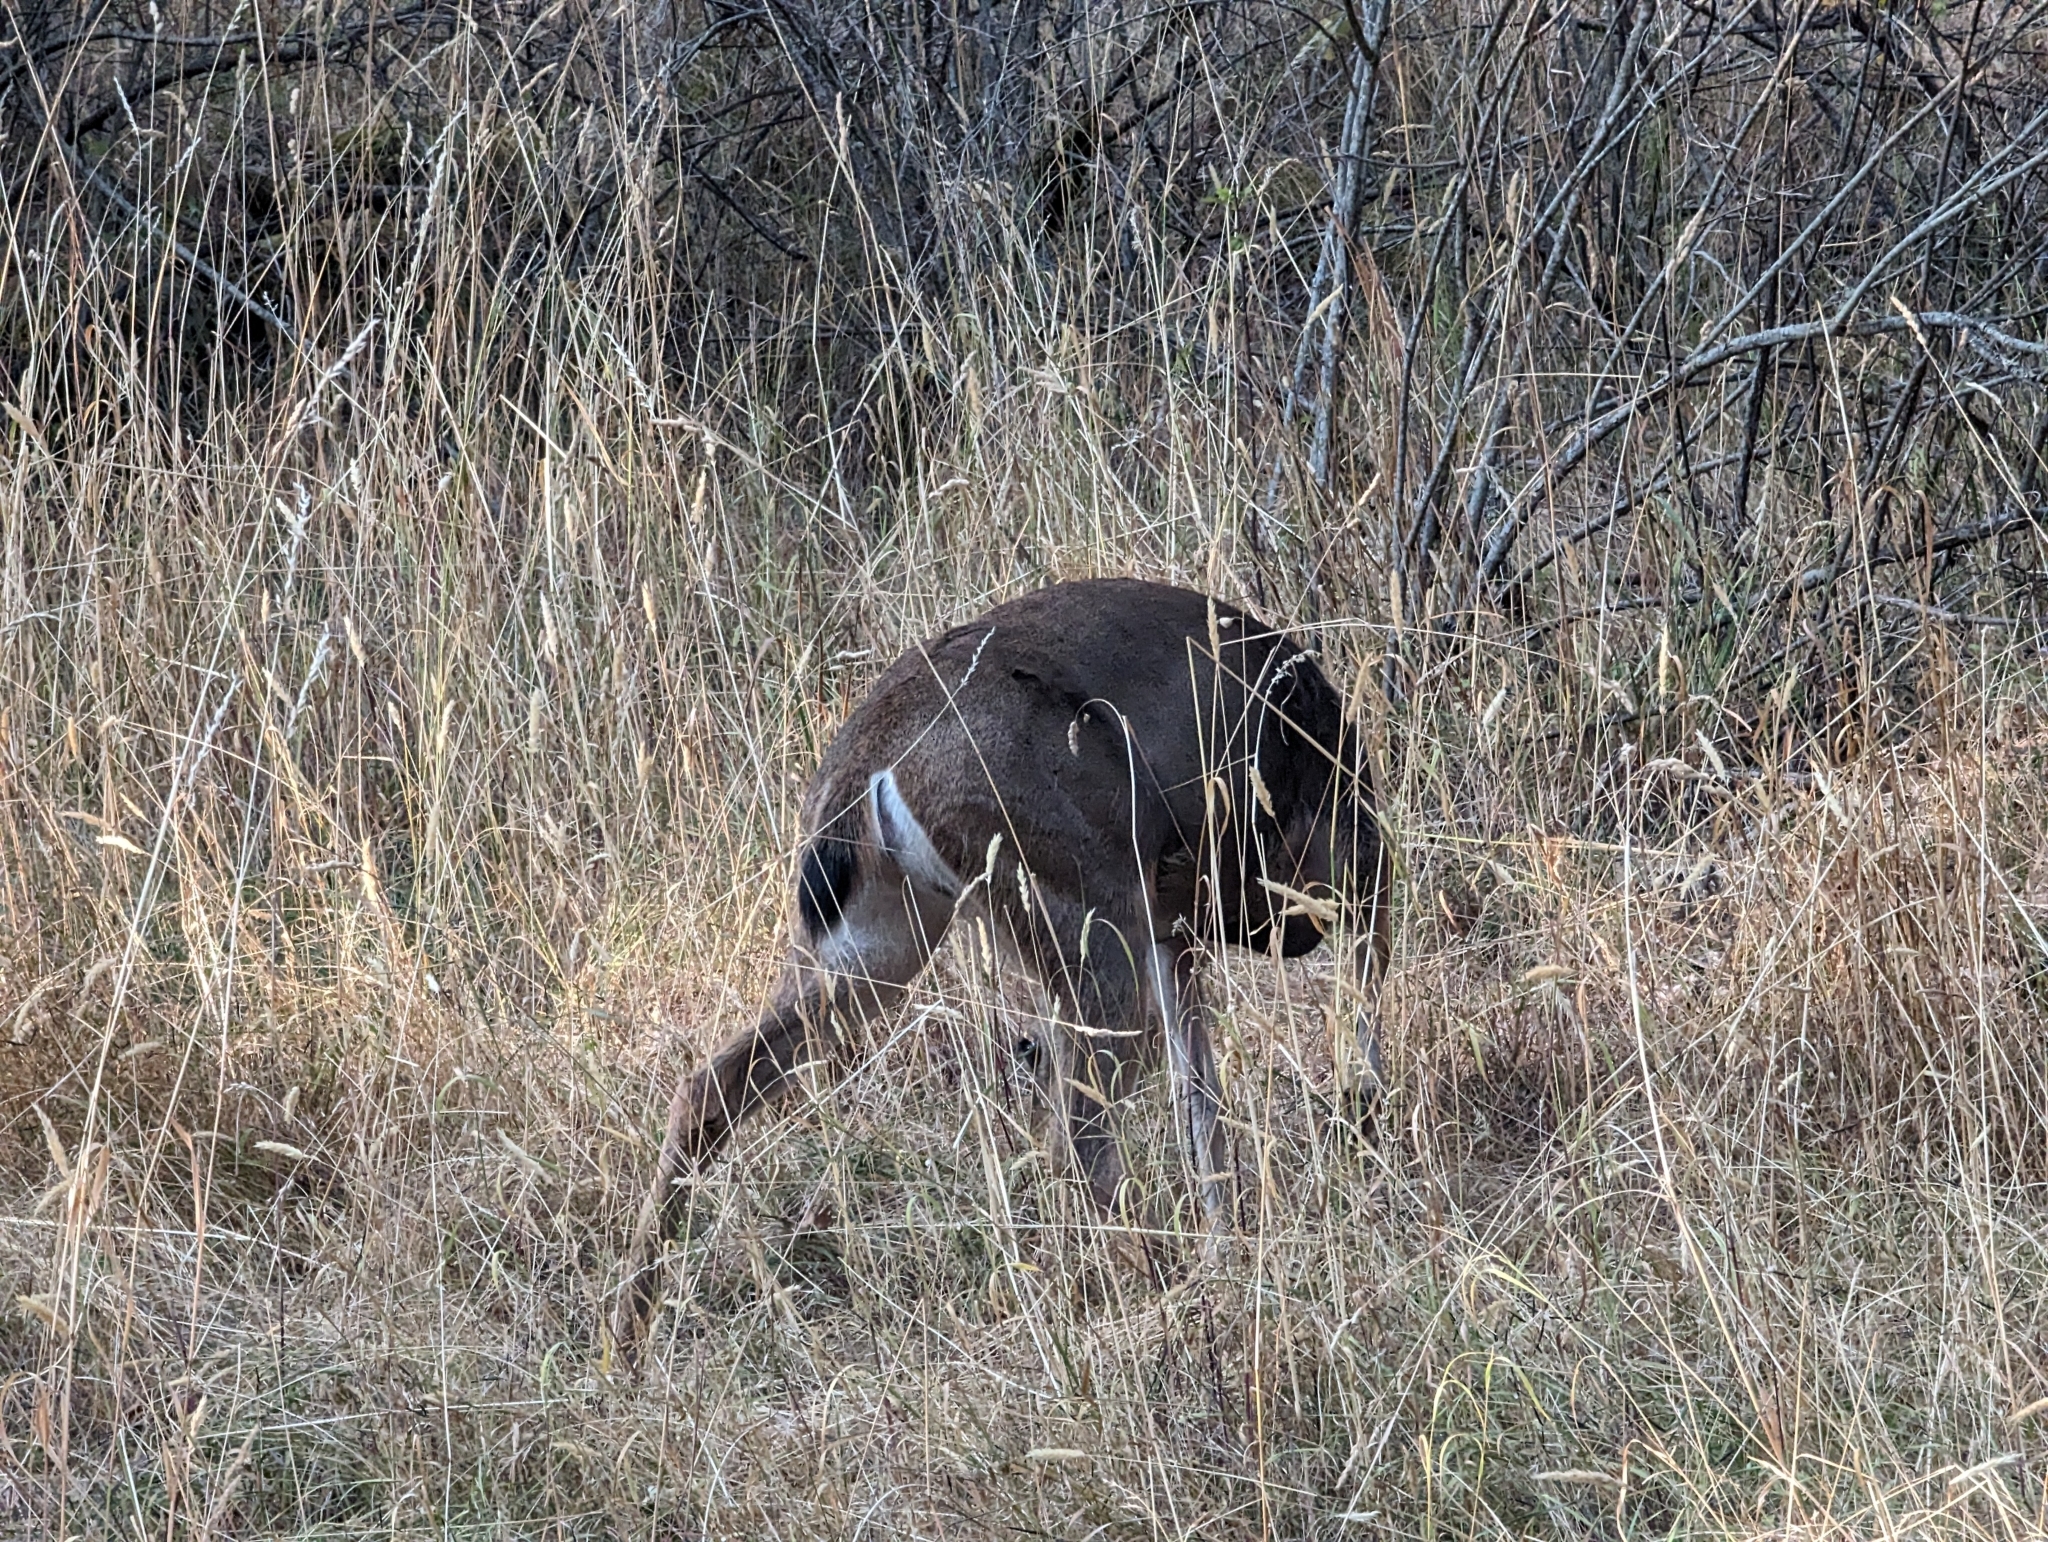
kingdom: Animalia
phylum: Chordata
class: Mammalia
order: Artiodactyla
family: Cervidae
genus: Odocoileus
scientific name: Odocoileus hemionus
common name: Mule deer
